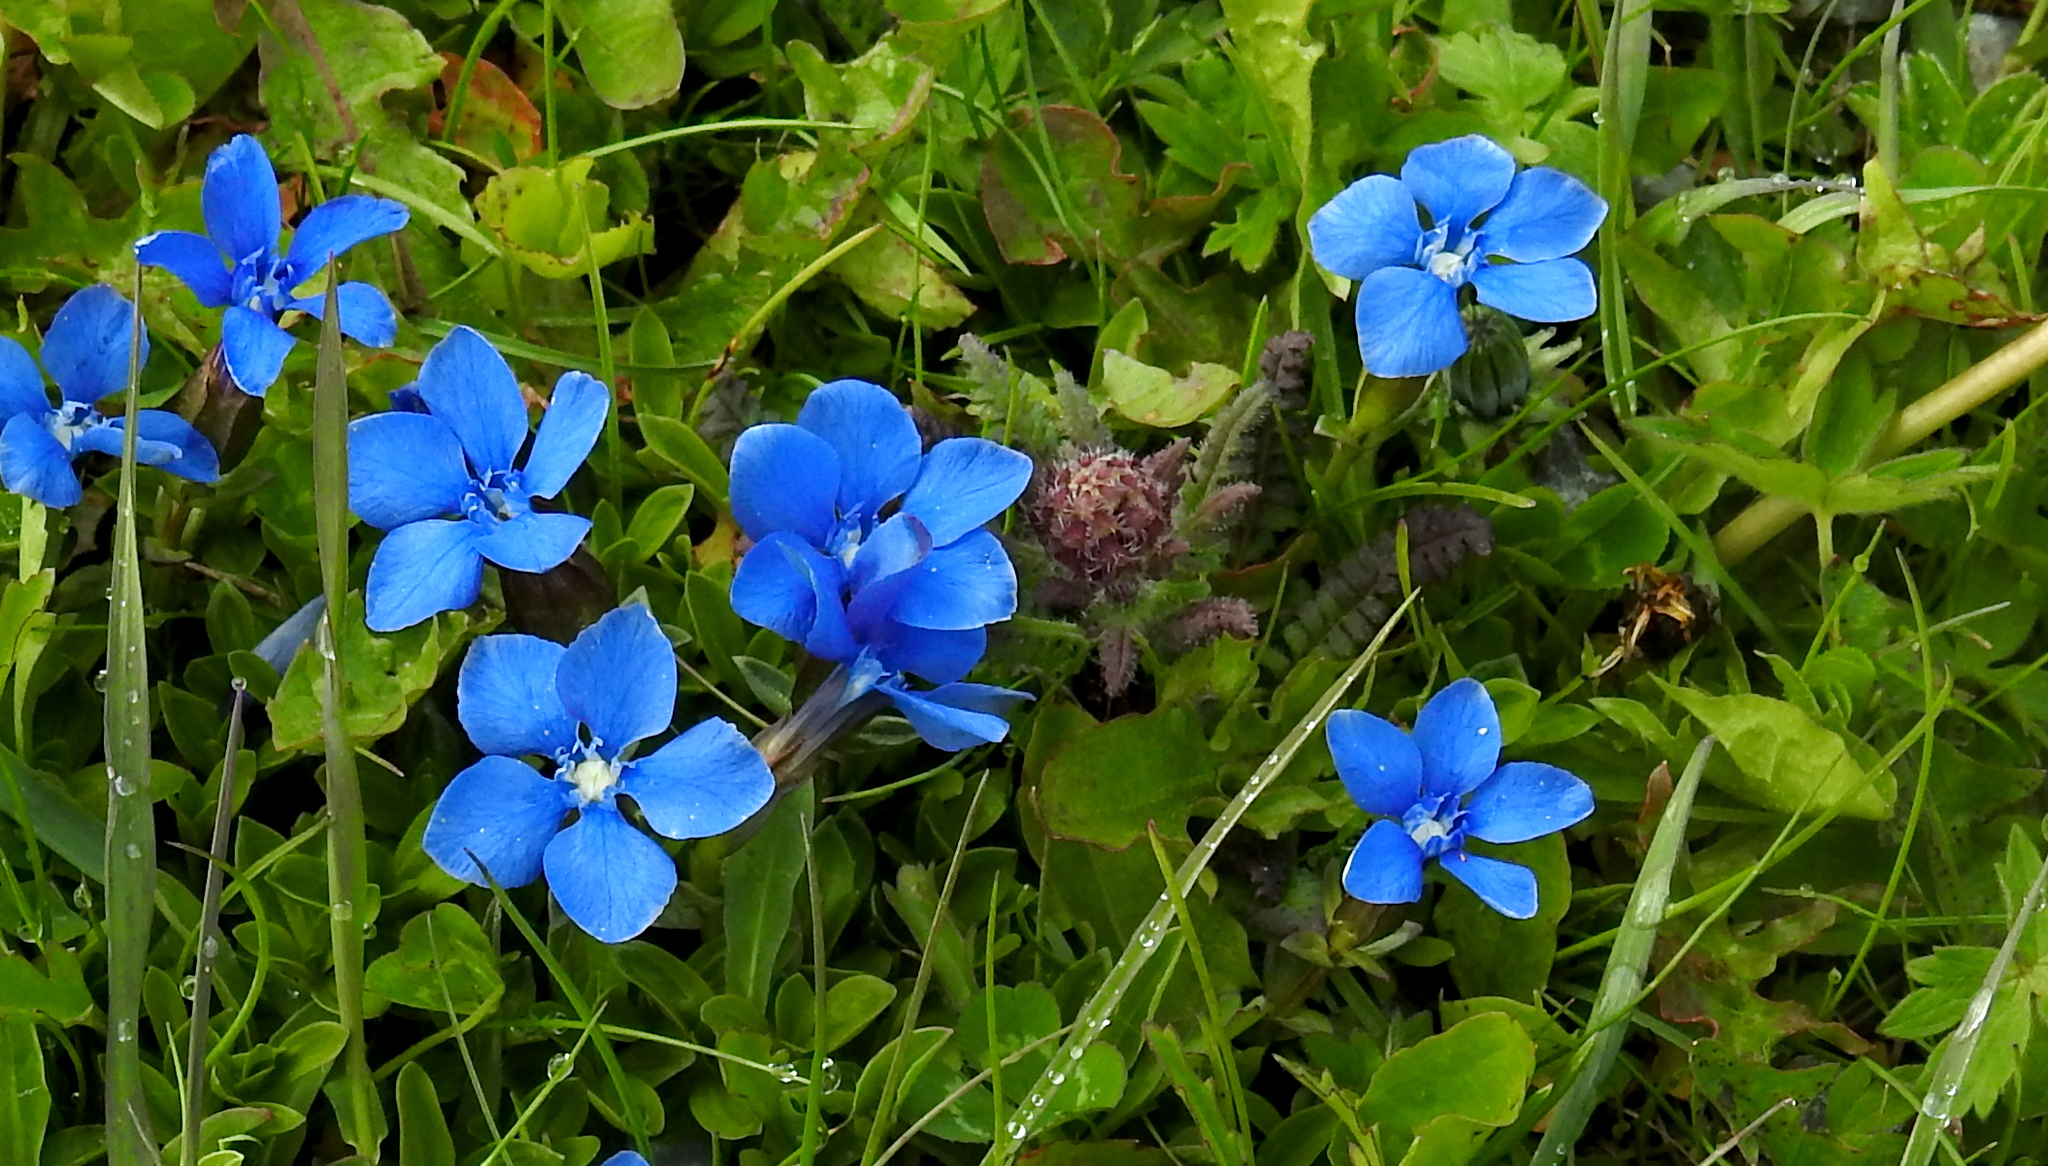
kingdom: Plantae
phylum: Tracheophyta
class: Magnoliopsida
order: Gentianales
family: Gentianaceae
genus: Gentiana
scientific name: Gentiana verna
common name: Spring gentian
